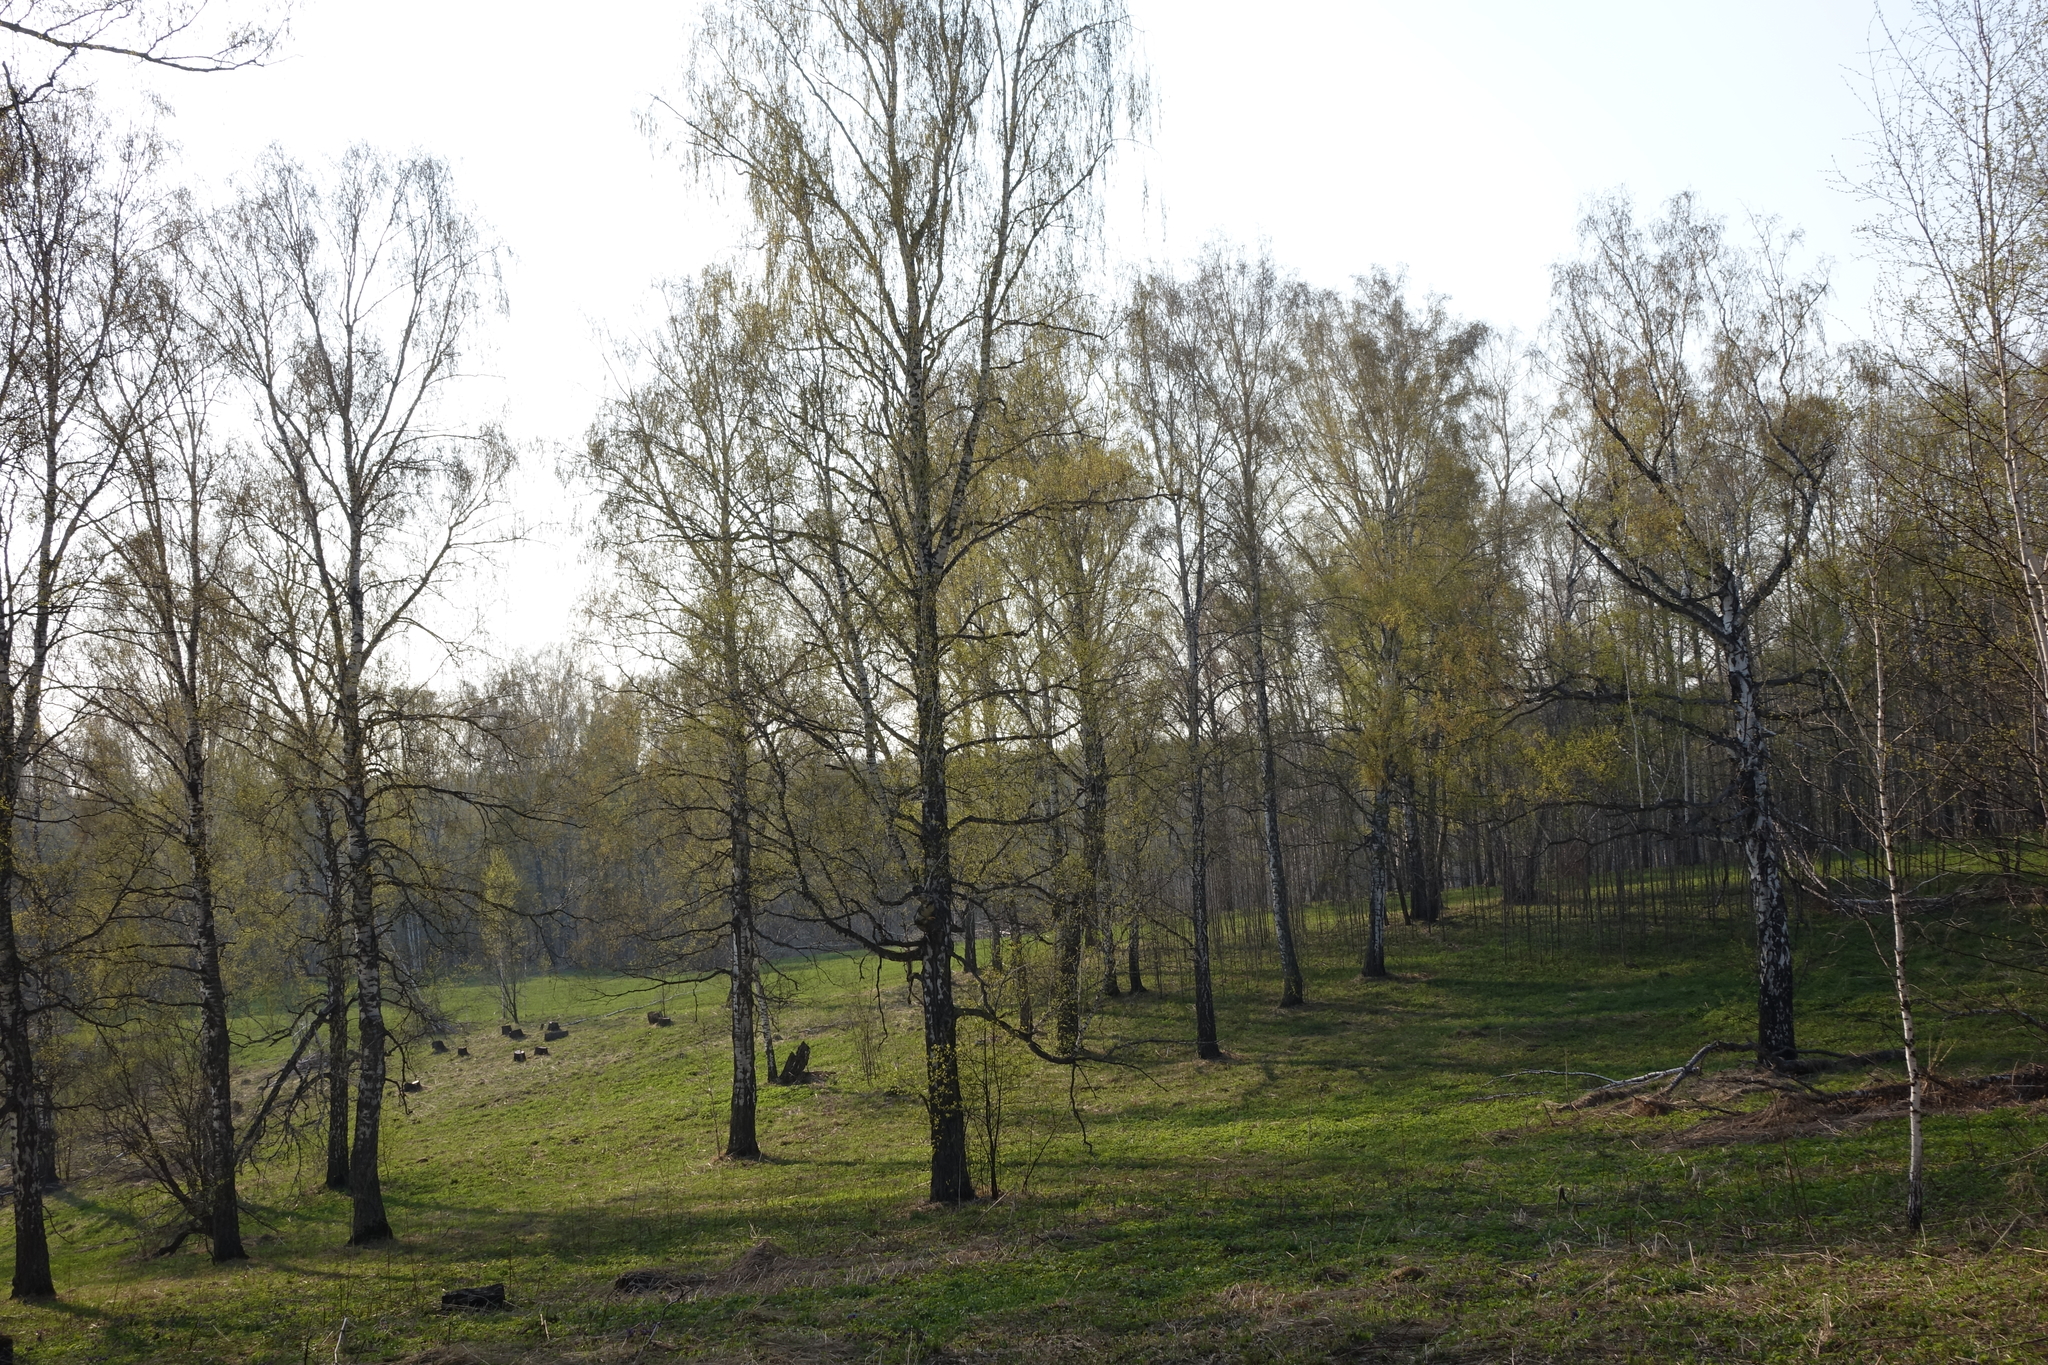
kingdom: Plantae
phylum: Tracheophyta
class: Magnoliopsida
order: Fagales
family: Betulaceae
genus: Betula
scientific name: Betula pendula
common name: Silver birch
